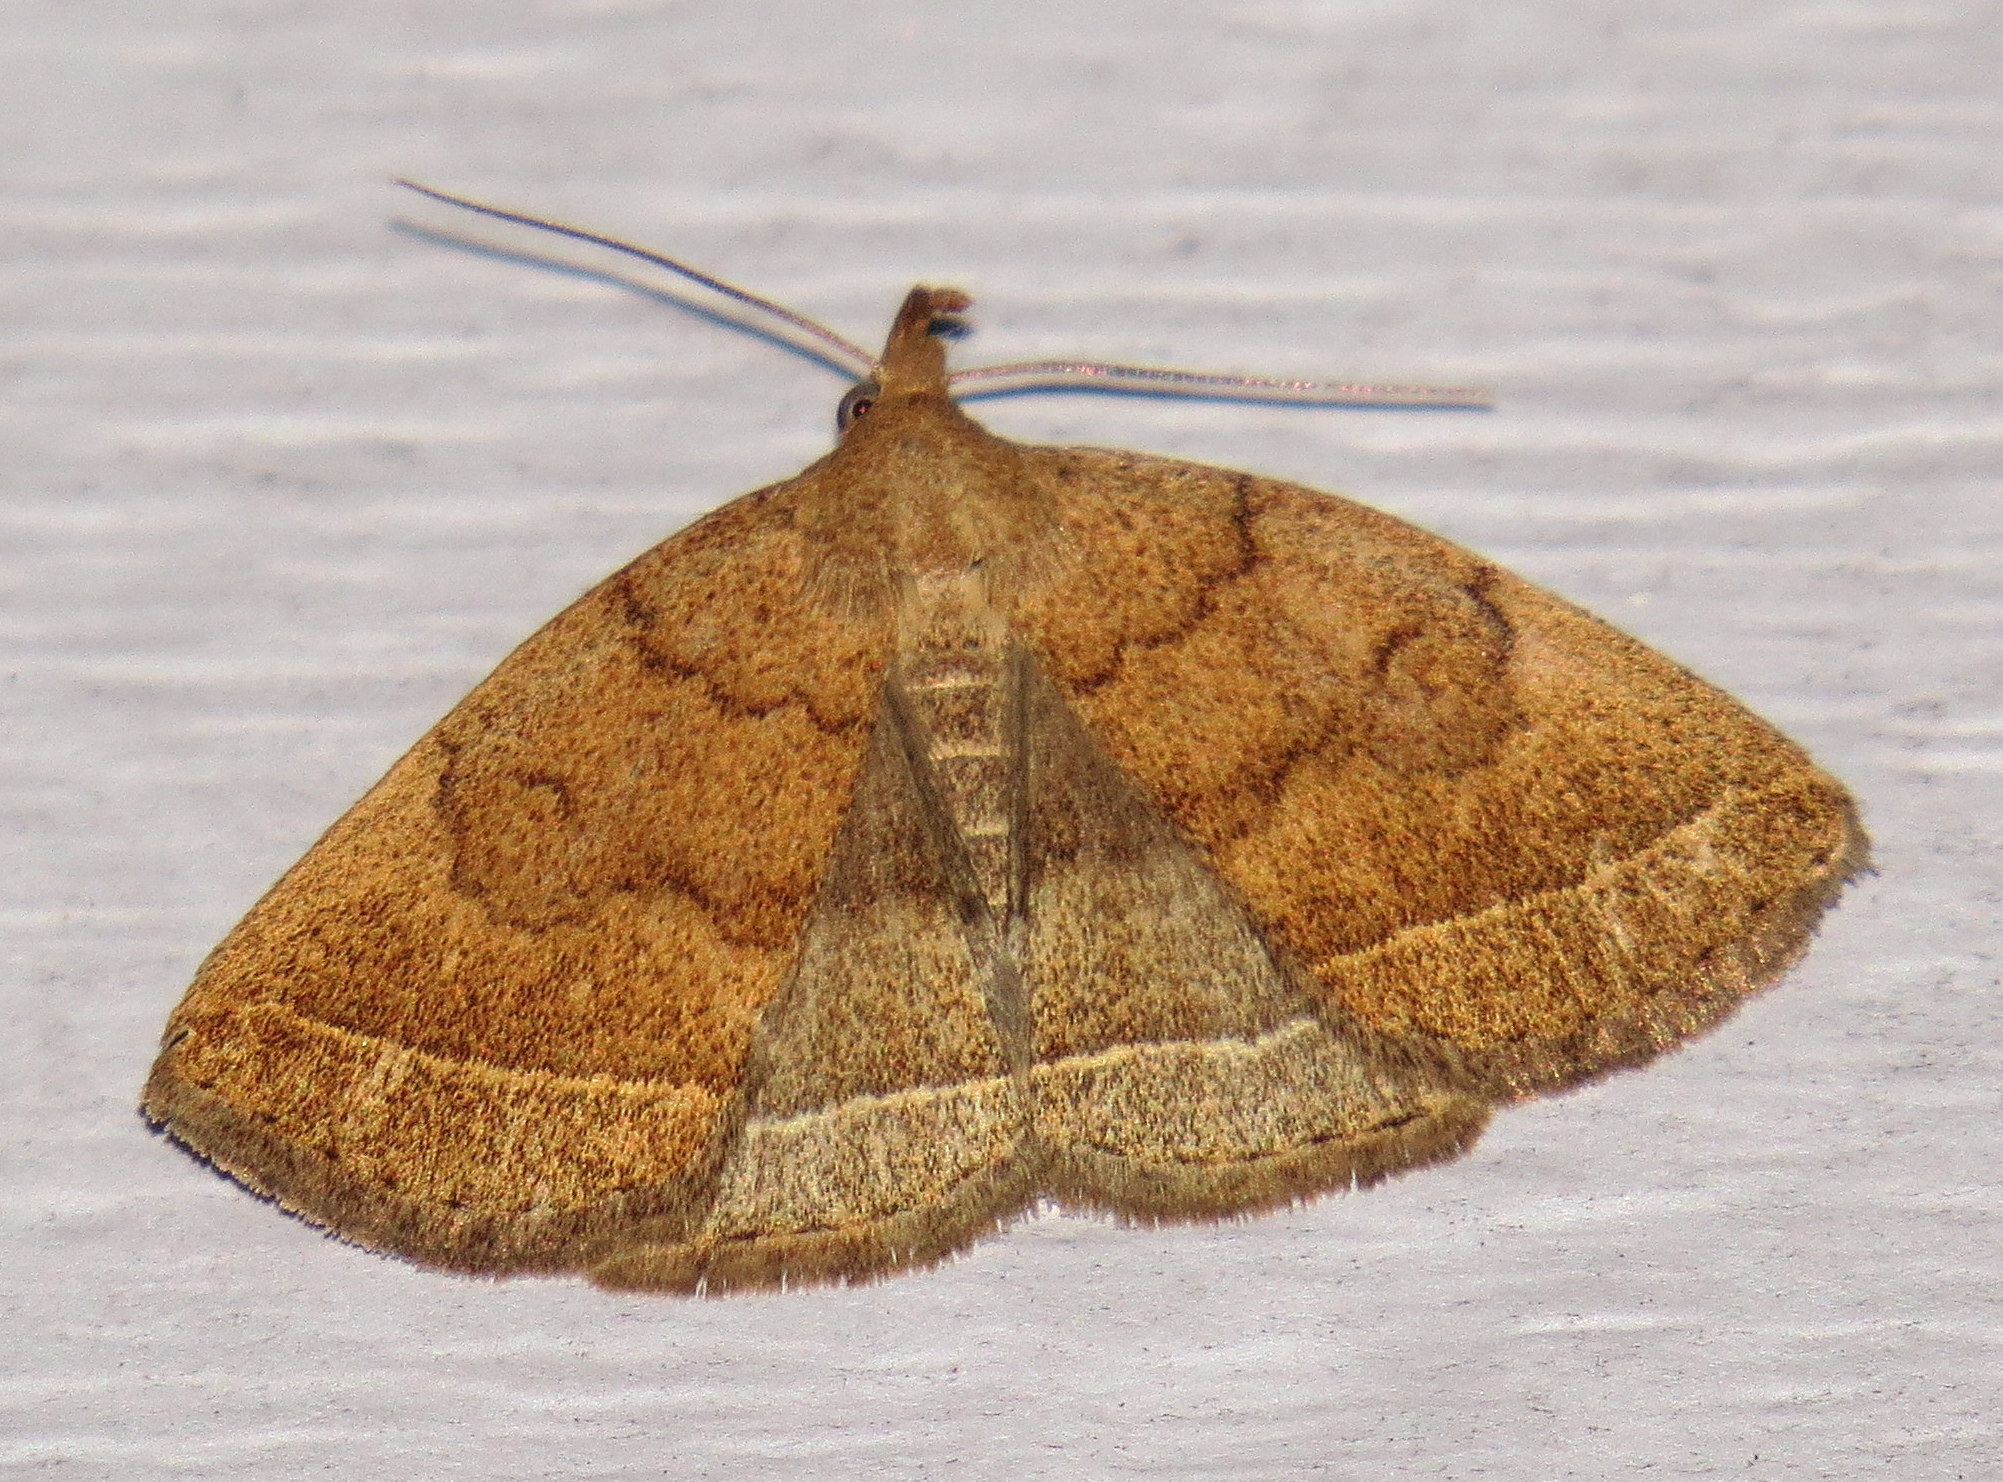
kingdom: Animalia
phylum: Arthropoda
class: Insecta
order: Lepidoptera
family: Erebidae
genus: Zanclognatha
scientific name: Zanclognatha jacchusalis
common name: Yellowish zanclognatha
